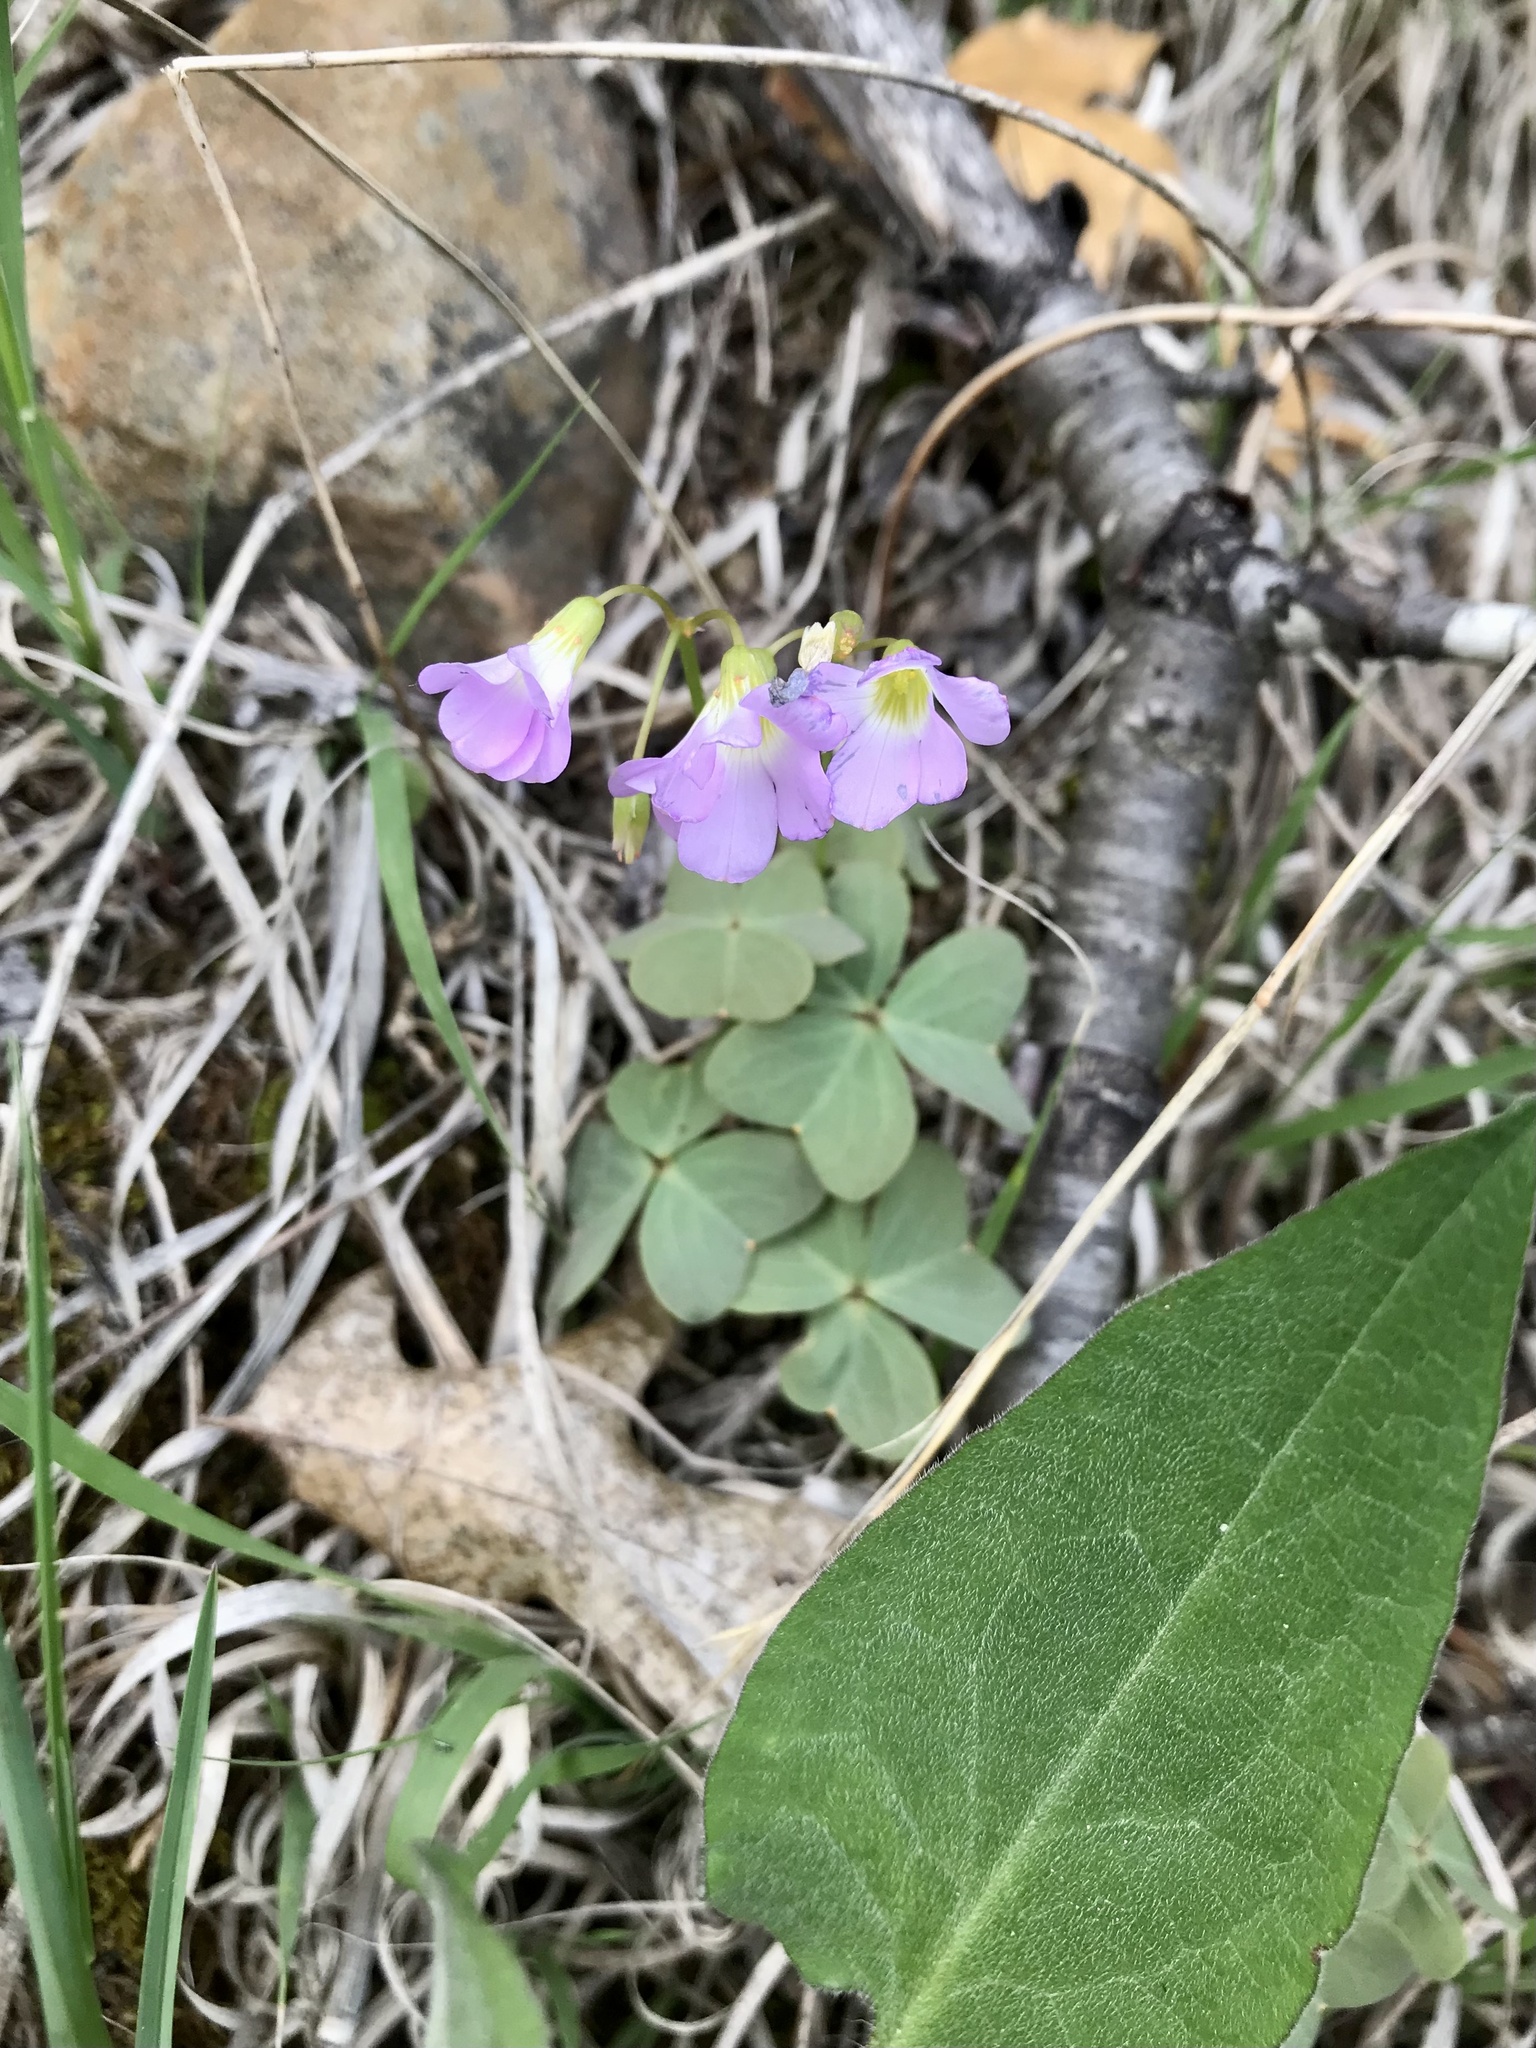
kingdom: Plantae
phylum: Tracheophyta
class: Magnoliopsida
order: Oxalidales
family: Oxalidaceae
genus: Oxalis
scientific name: Oxalis violacea
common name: Violet wood-sorrel
